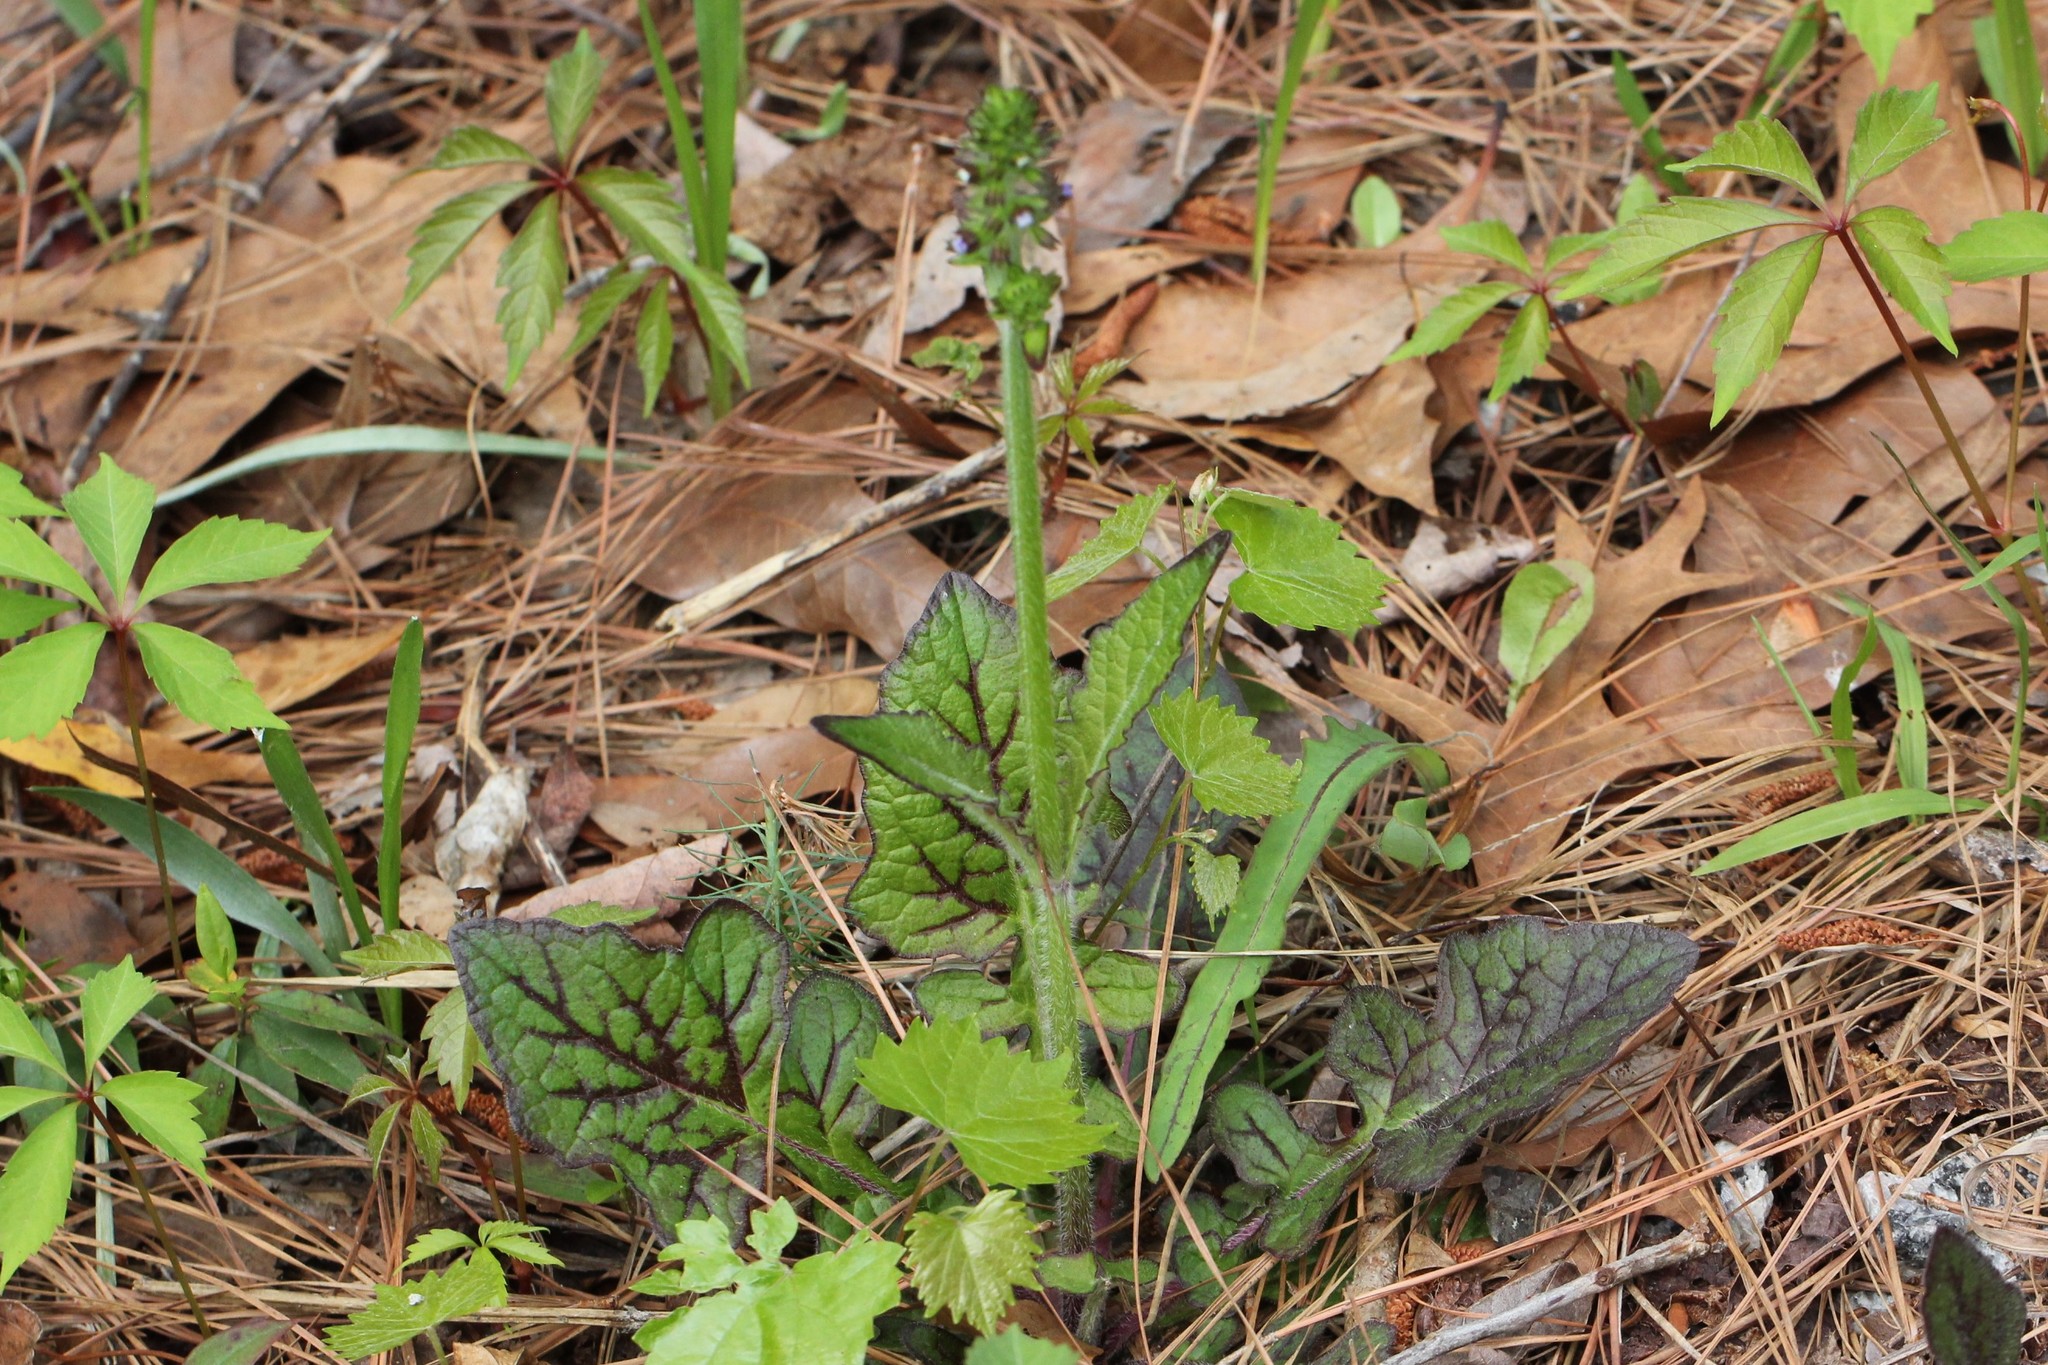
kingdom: Plantae
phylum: Tracheophyta
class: Magnoliopsida
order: Lamiales
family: Lamiaceae
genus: Salvia
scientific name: Salvia lyrata
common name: Cancerweed
